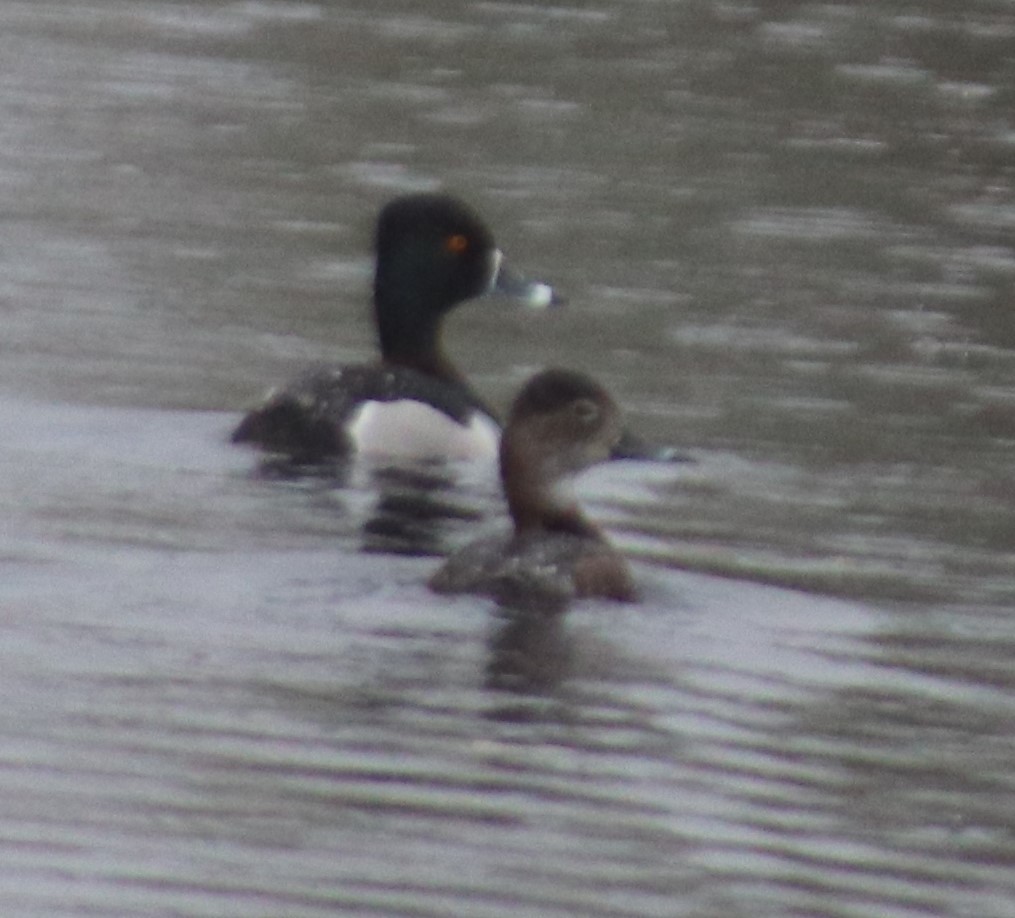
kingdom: Animalia
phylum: Chordata
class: Aves
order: Anseriformes
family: Anatidae
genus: Aythya
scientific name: Aythya collaris
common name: Ring-necked duck
